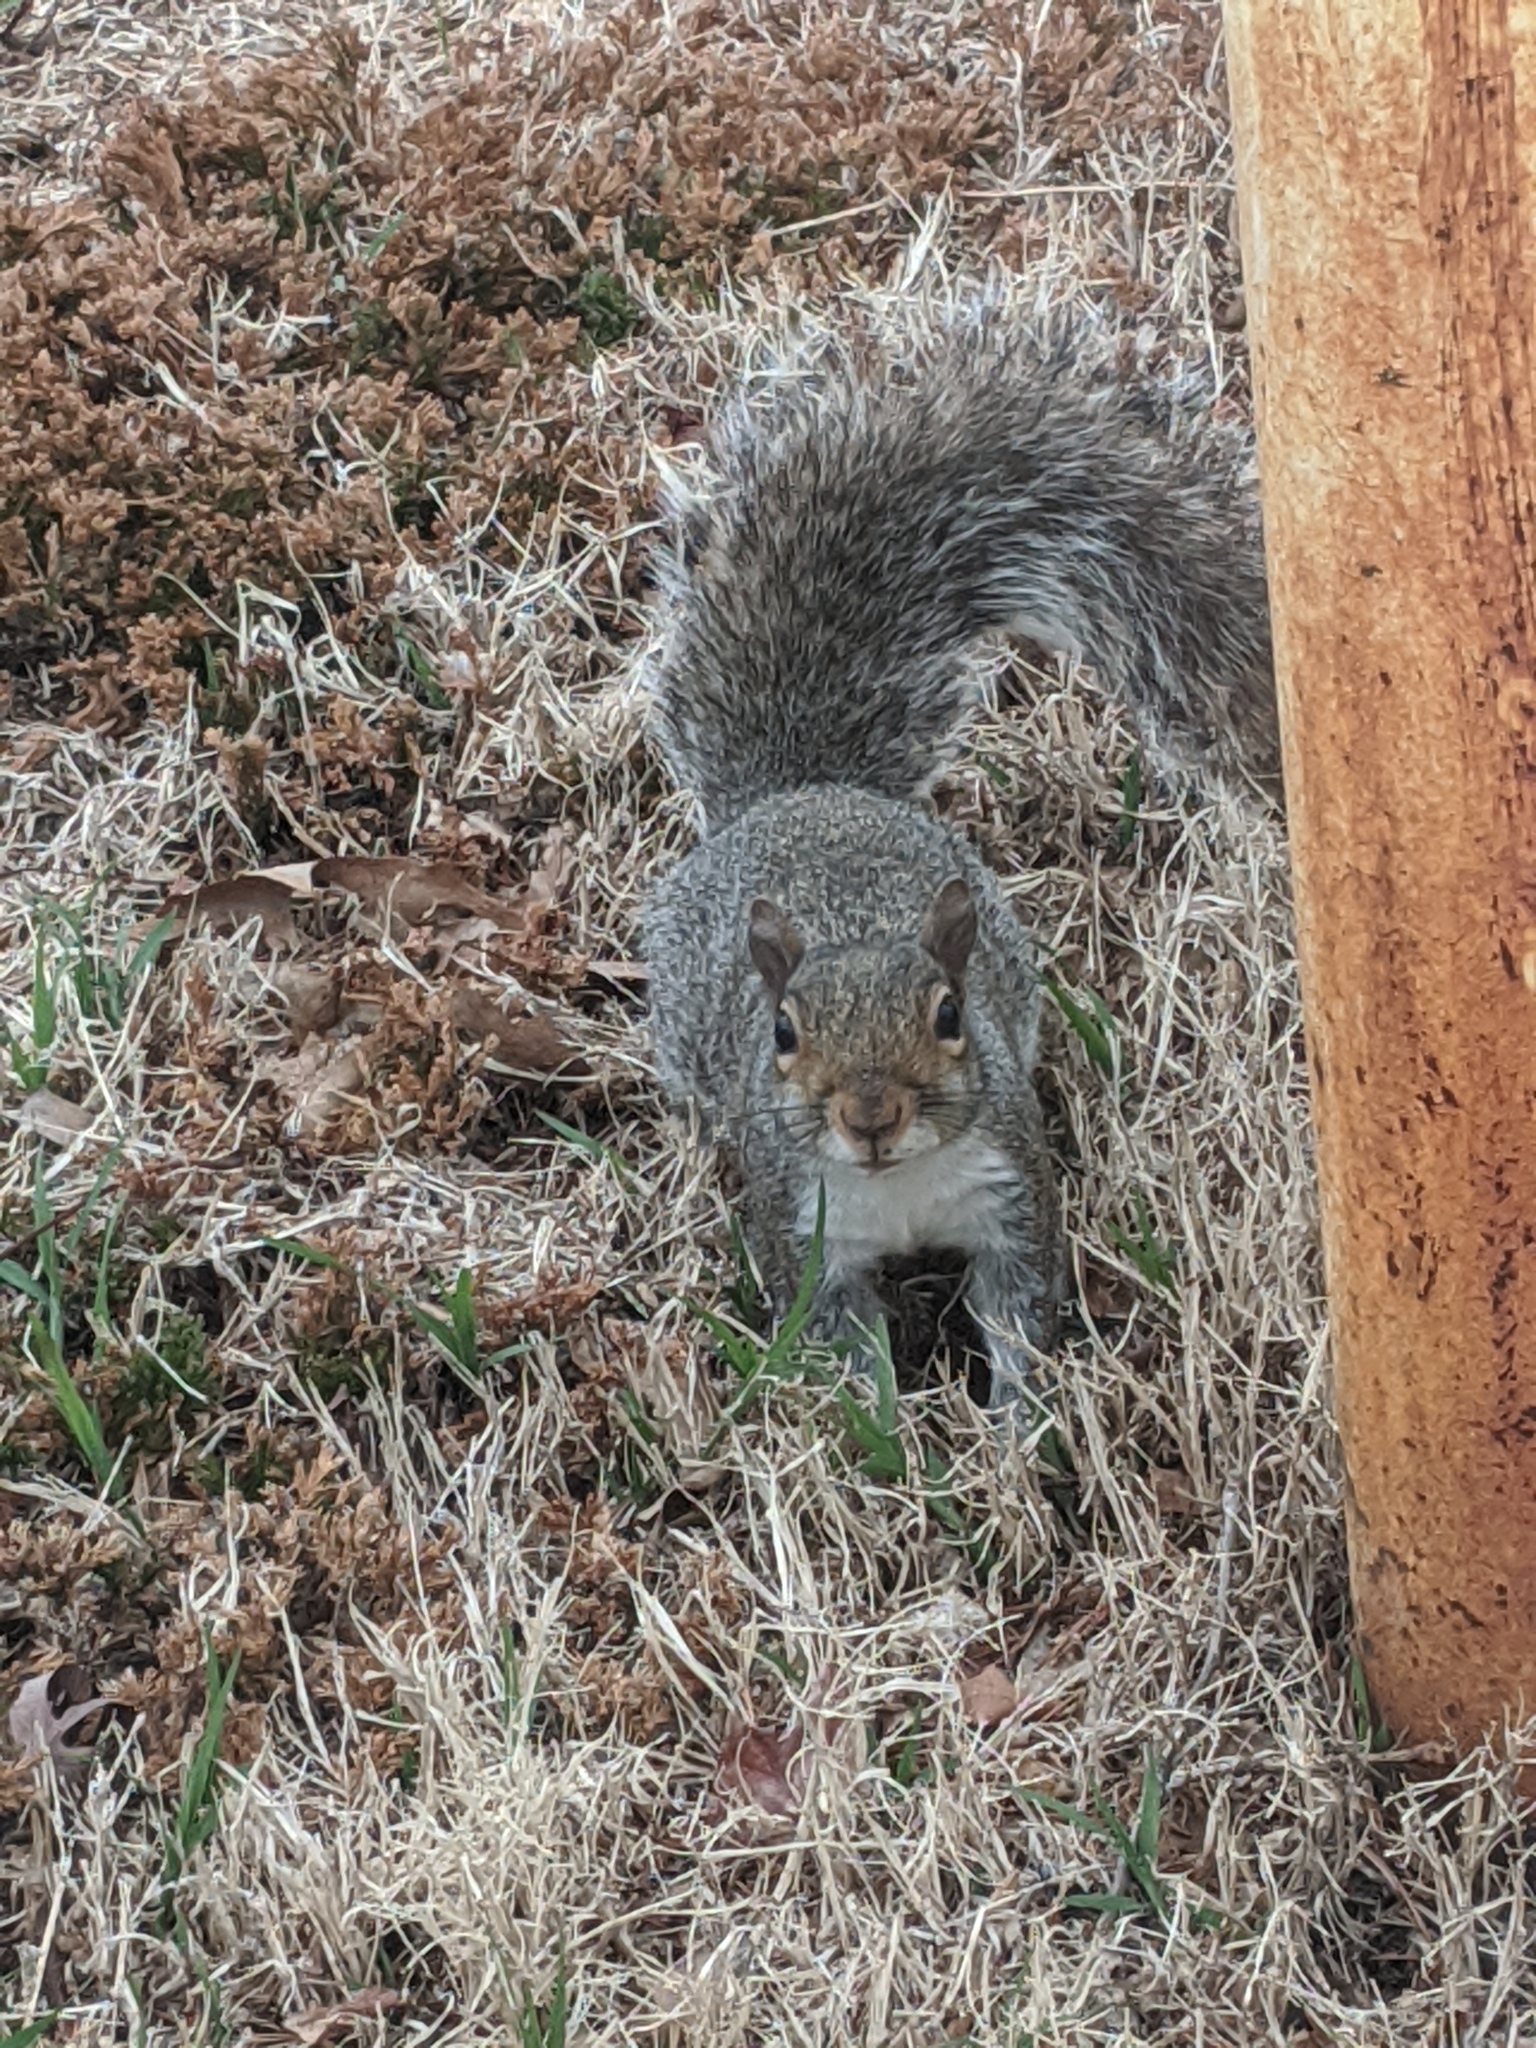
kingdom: Animalia
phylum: Chordata
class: Mammalia
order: Rodentia
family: Sciuridae
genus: Sciurus
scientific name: Sciurus carolinensis
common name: Eastern gray squirrel
